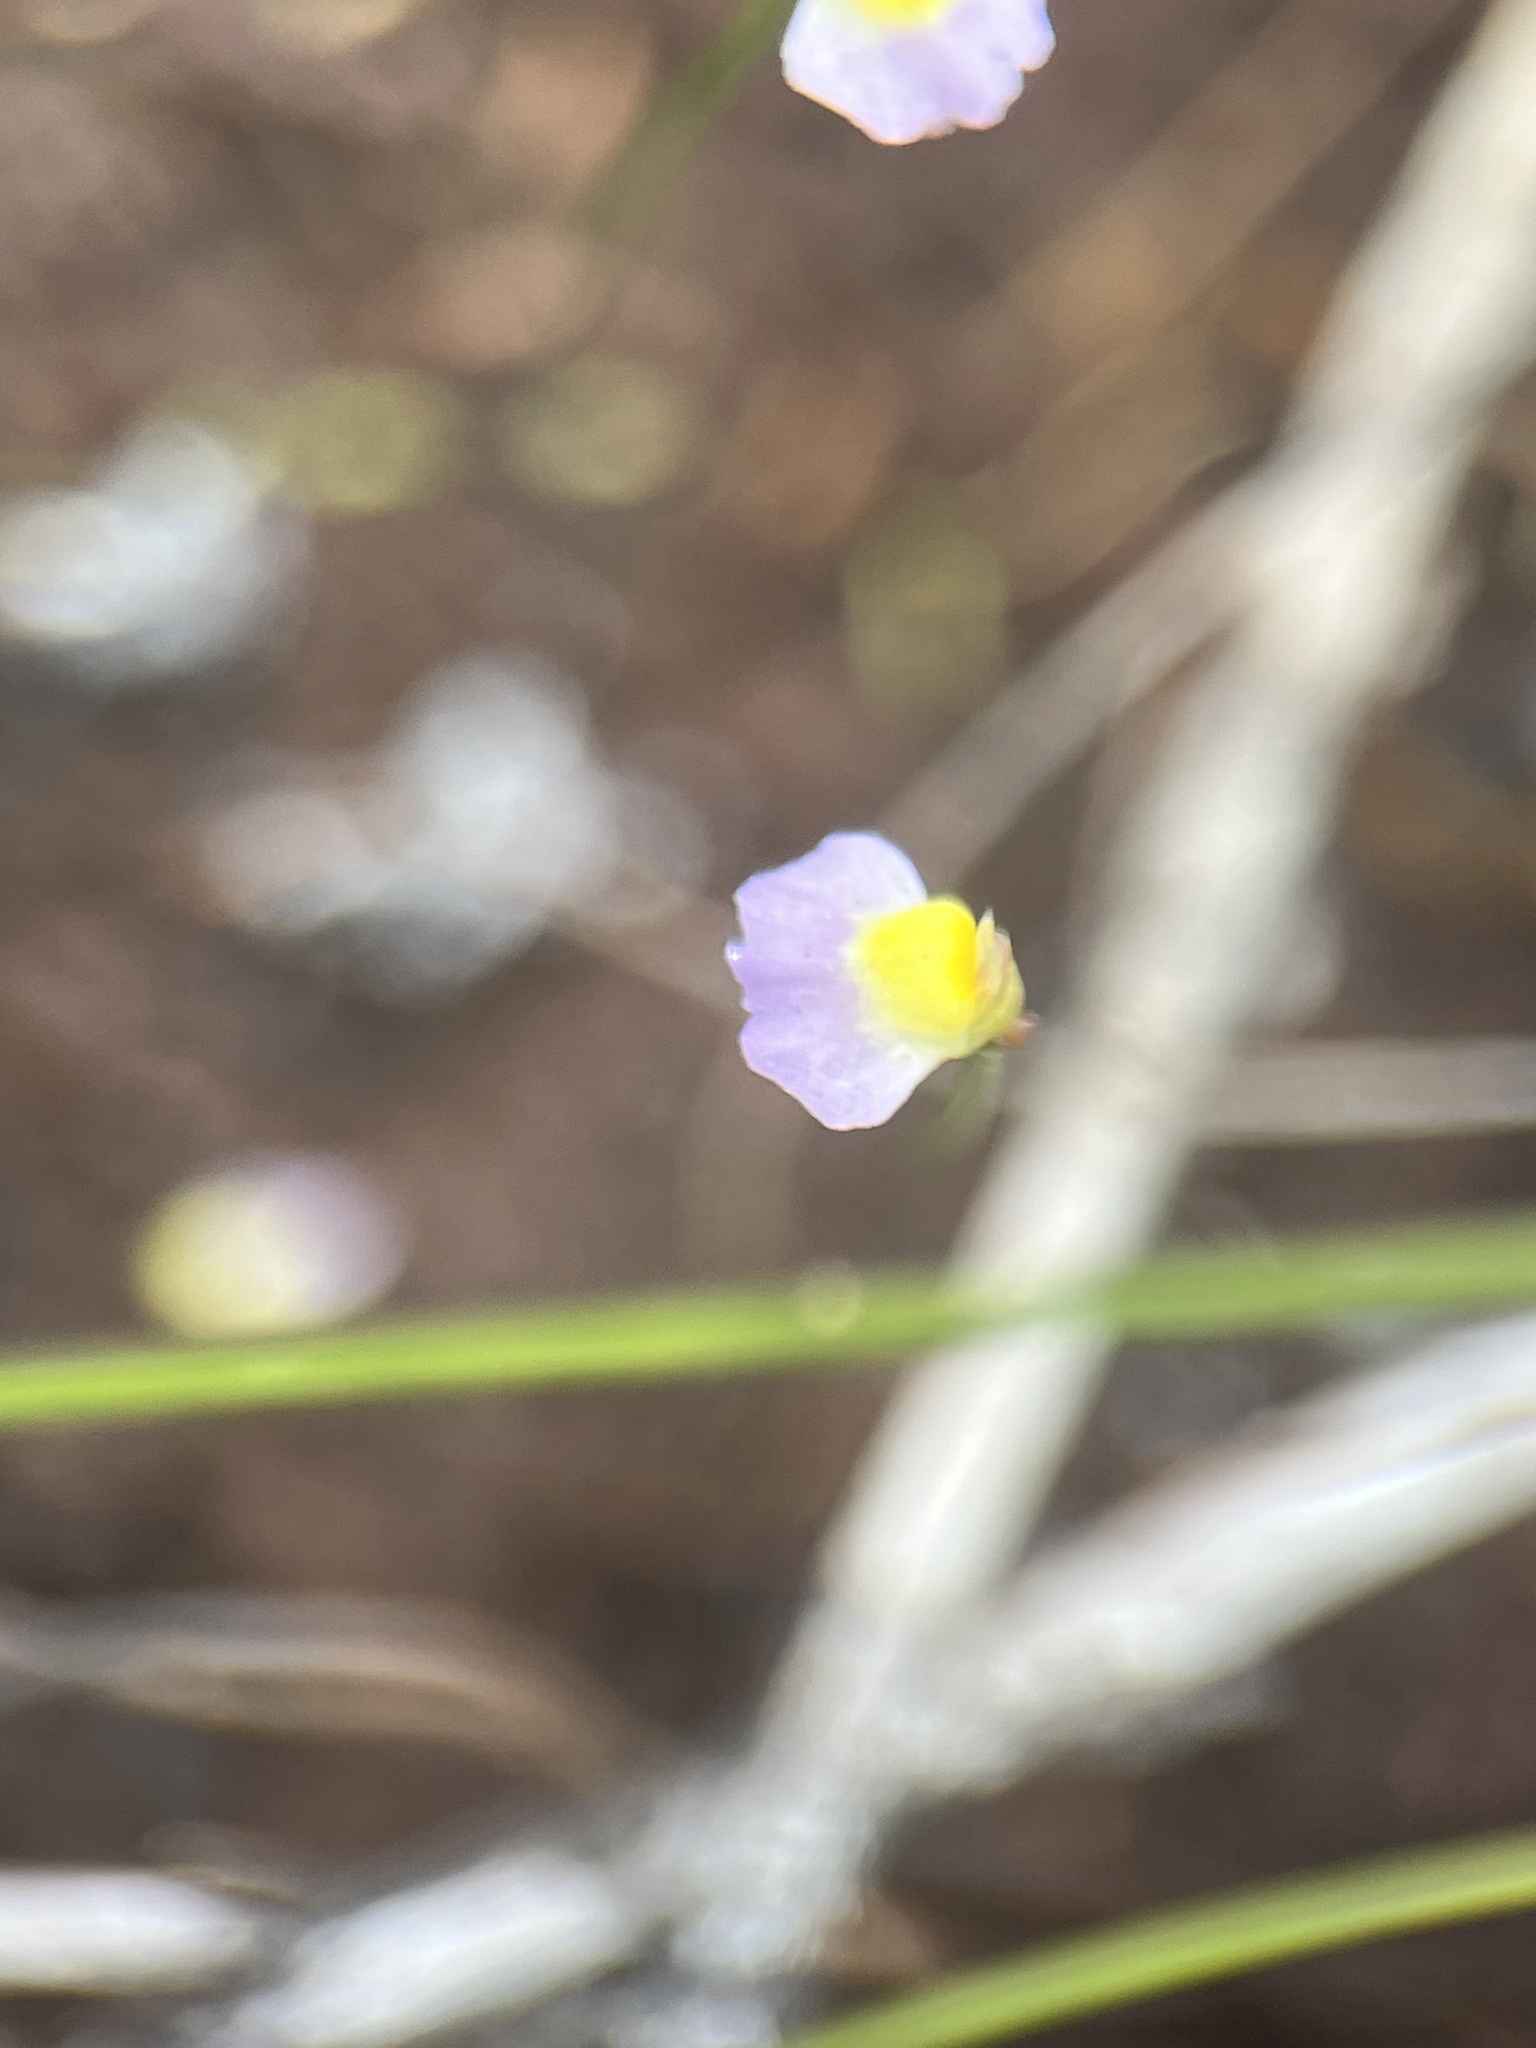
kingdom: Plantae
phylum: Tracheophyta
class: Magnoliopsida
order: Lamiales
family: Lentibulariaceae
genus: Utricularia
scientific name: Utricularia bisquamata
